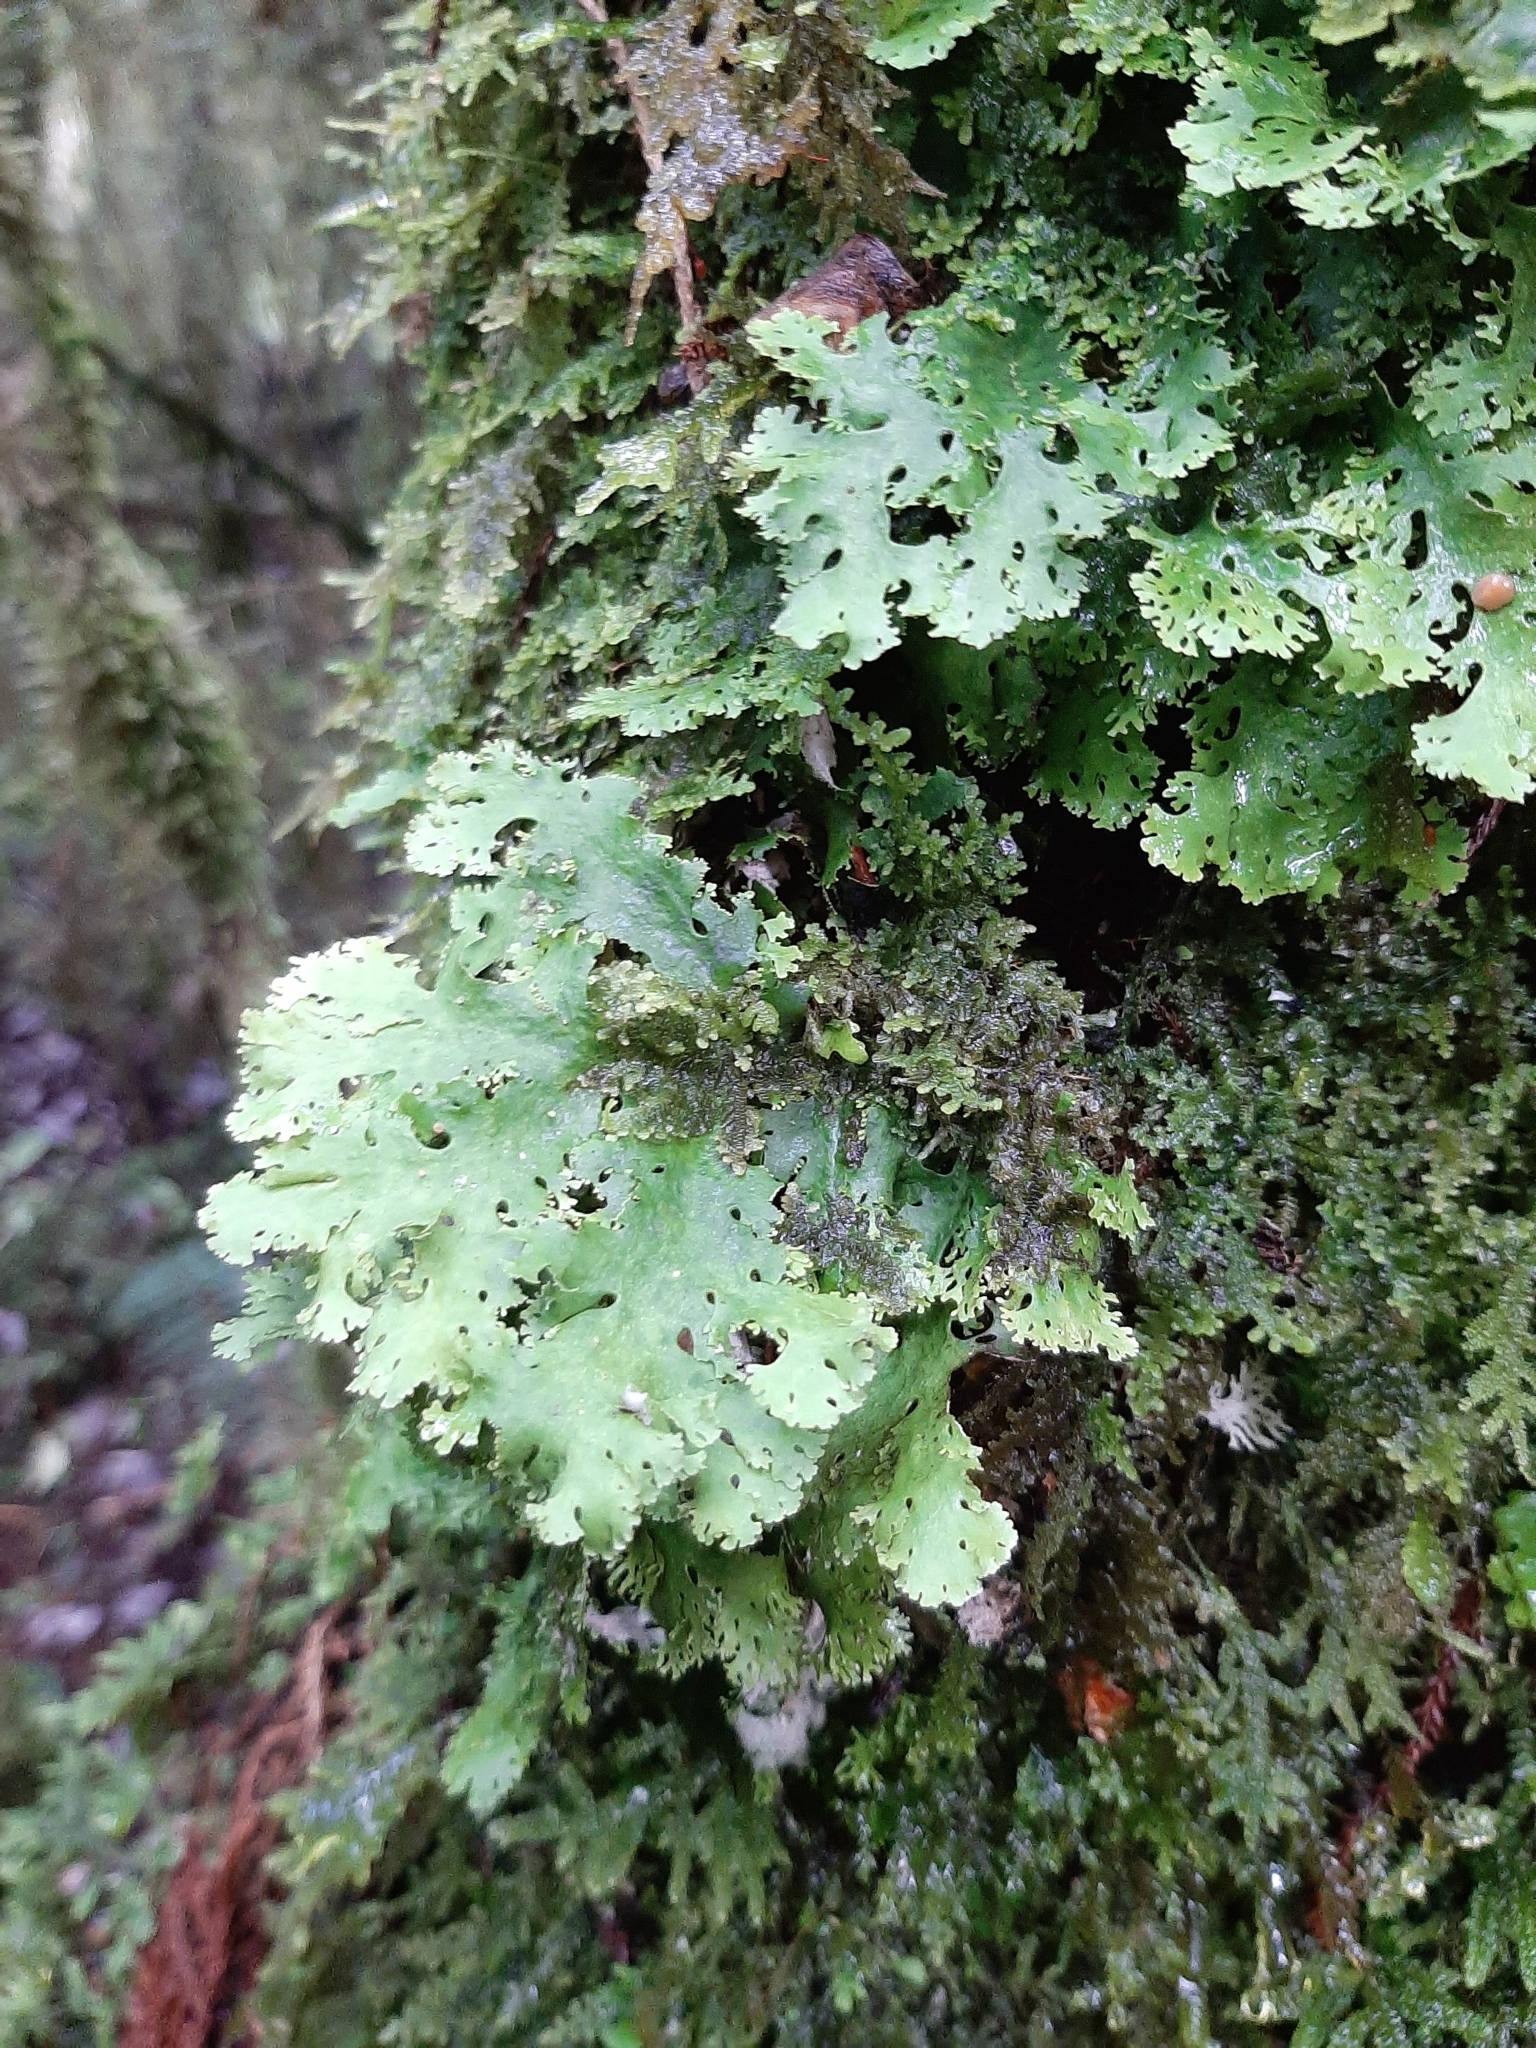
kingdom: Fungi
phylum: Ascomycota
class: Lecanoromycetes
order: Peltigerales
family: Lobariaceae
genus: Sticta
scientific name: Sticta filix
